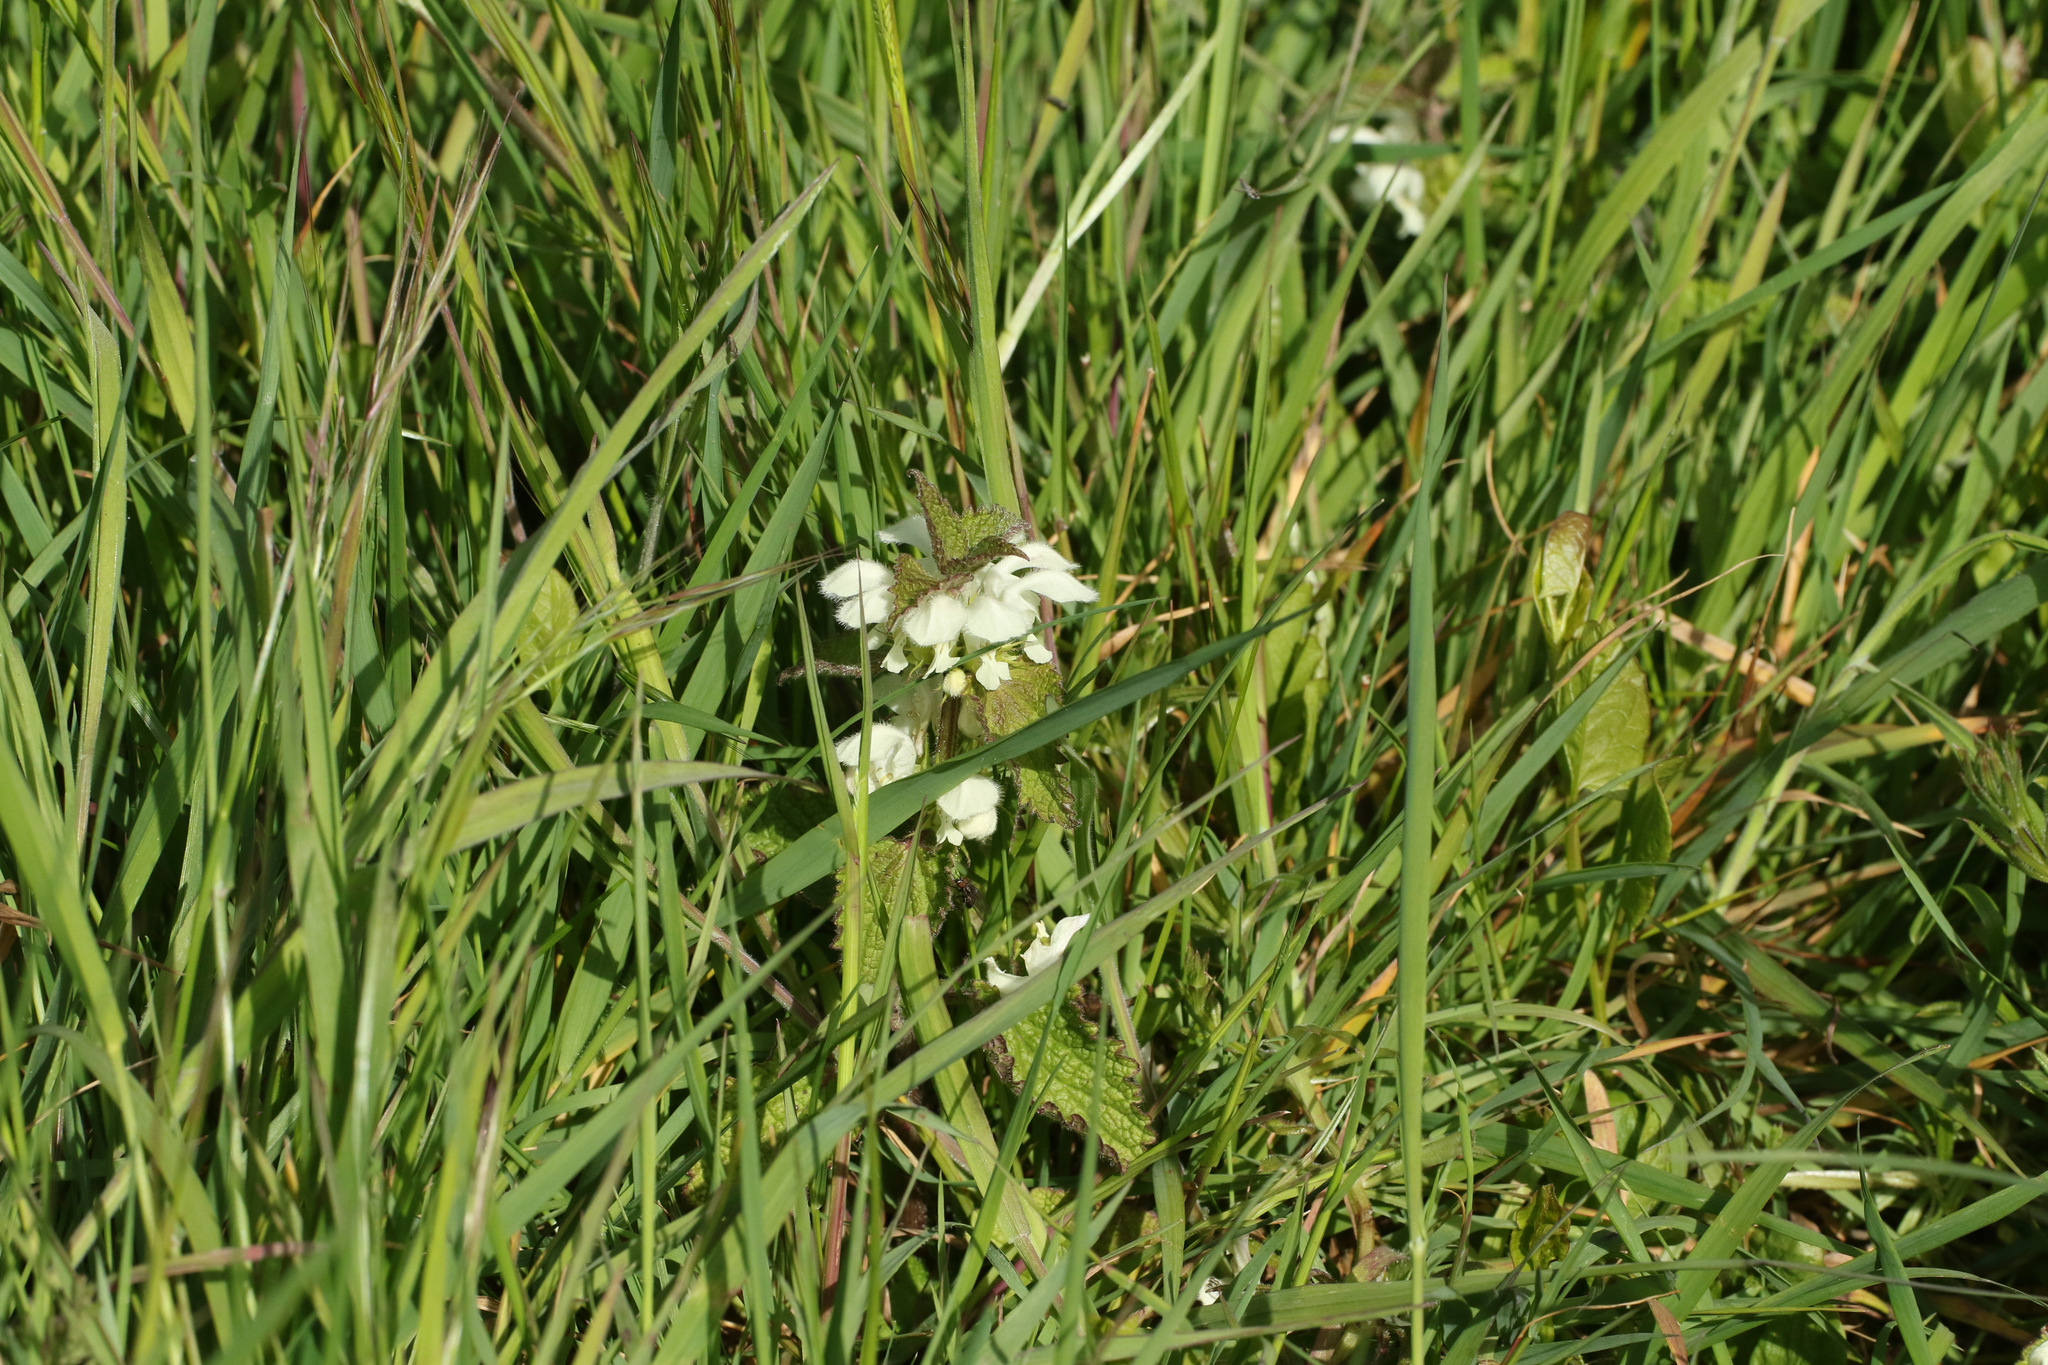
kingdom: Plantae
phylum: Tracheophyta
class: Magnoliopsida
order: Lamiales
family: Lamiaceae
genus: Lamium
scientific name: Lamium album
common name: White dead-nettle
